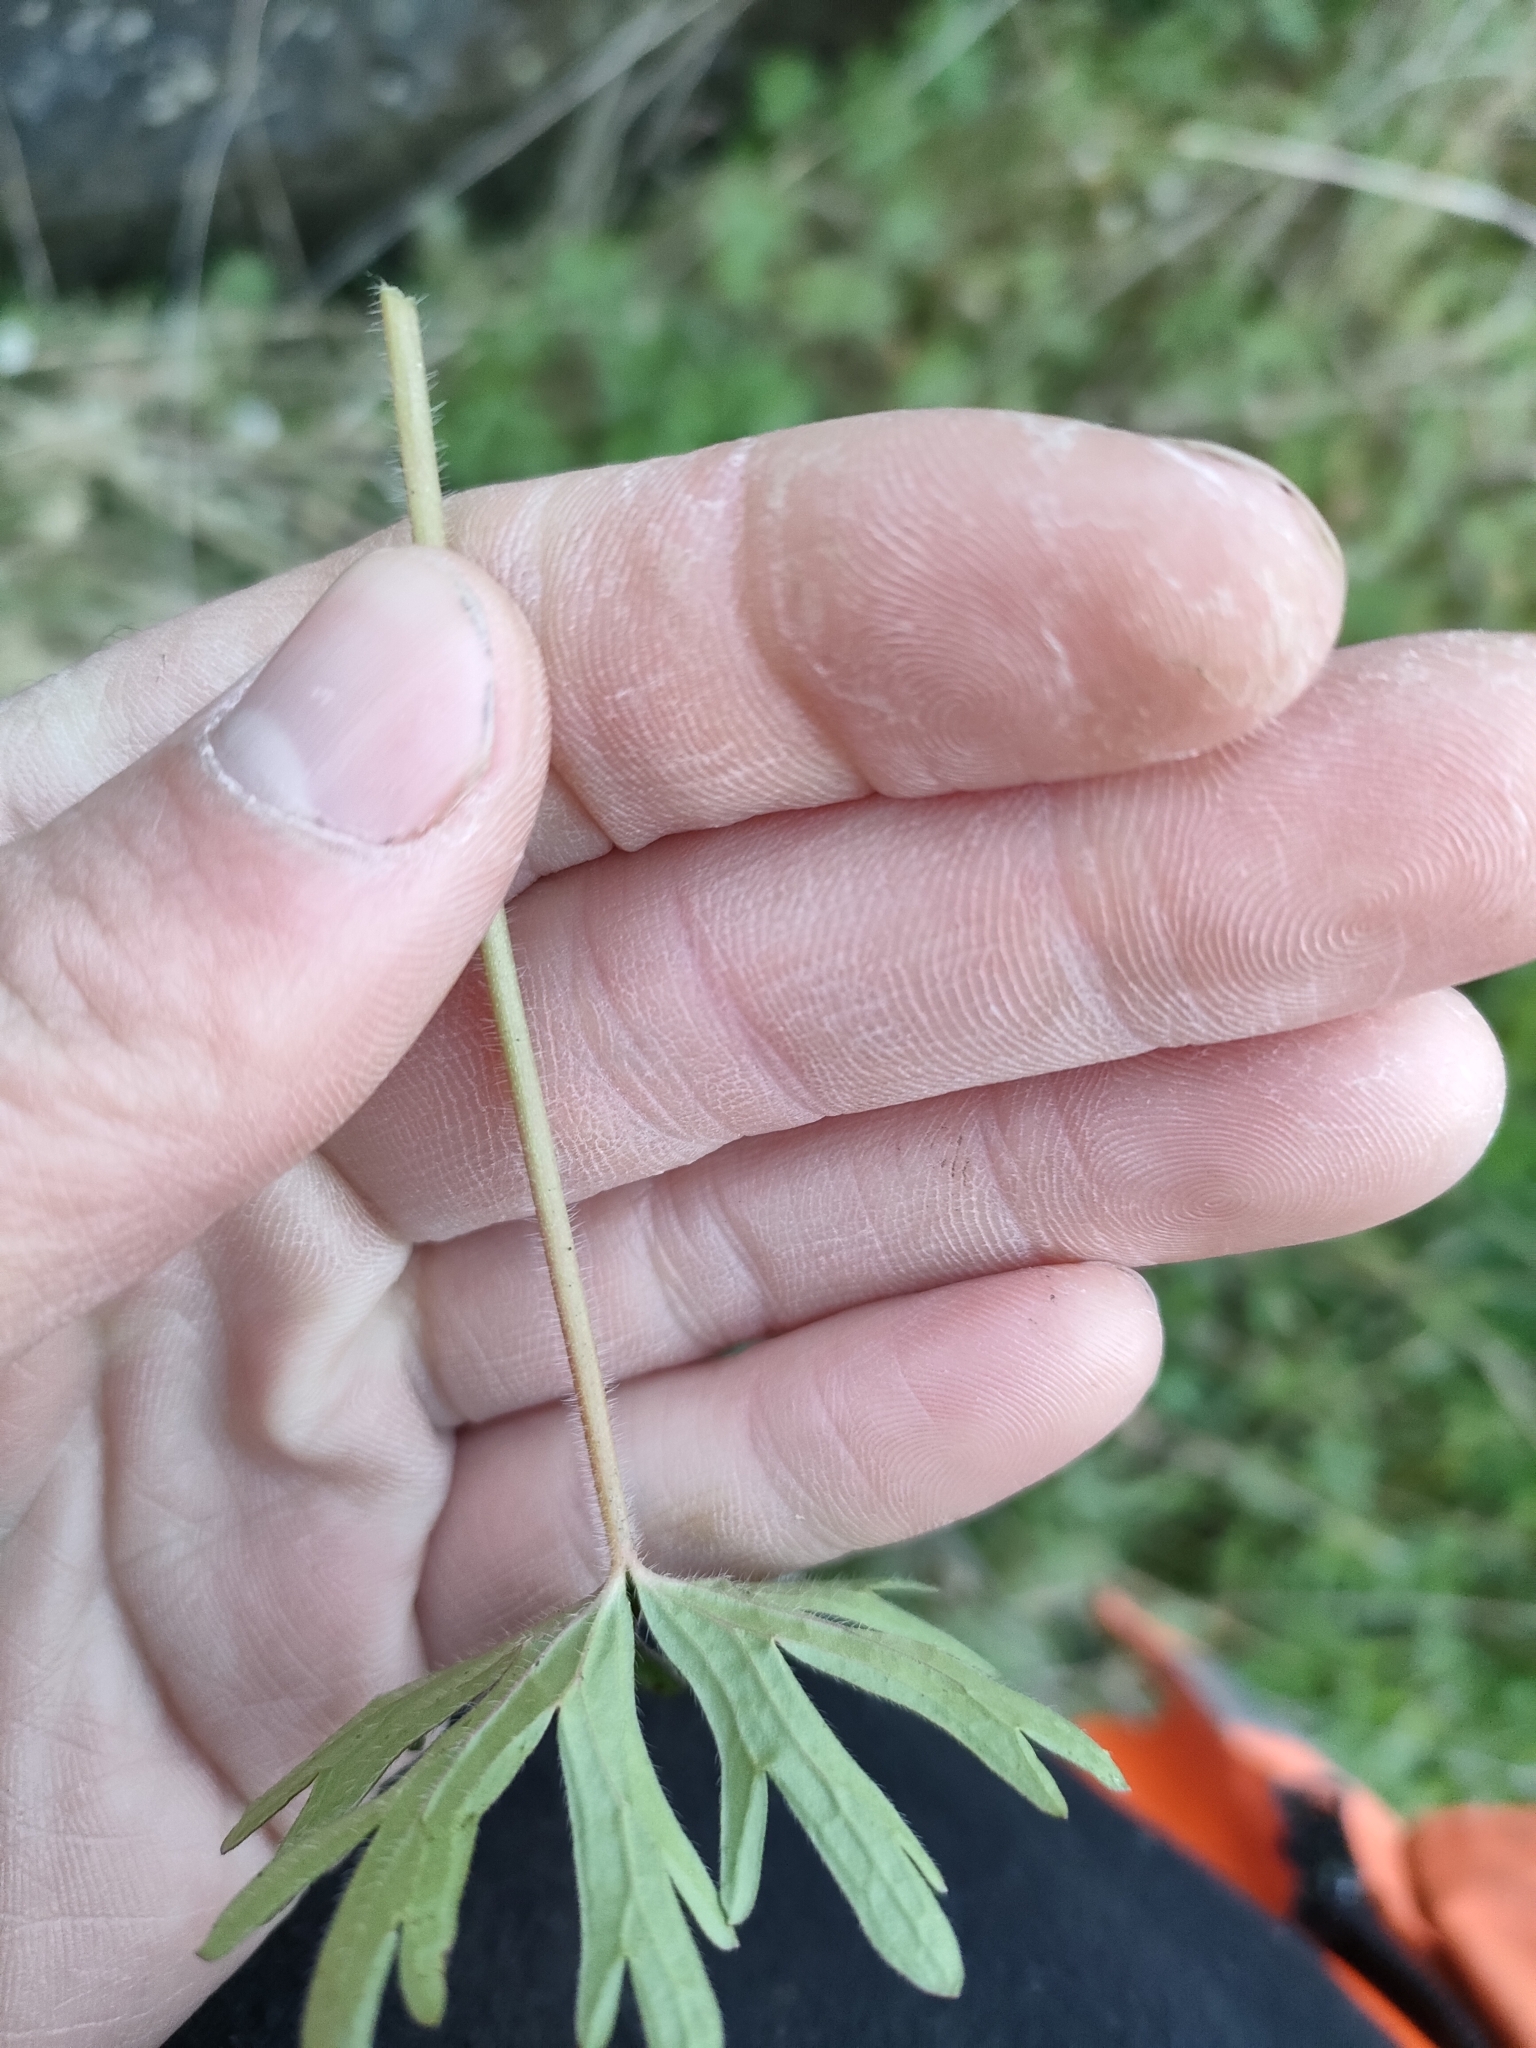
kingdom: Plantae
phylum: Tracheophyta
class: Magnoliopsida
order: Geraniales
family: Geraniaceae
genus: Geranium
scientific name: Geranium solanderi
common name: Solander's geranium
